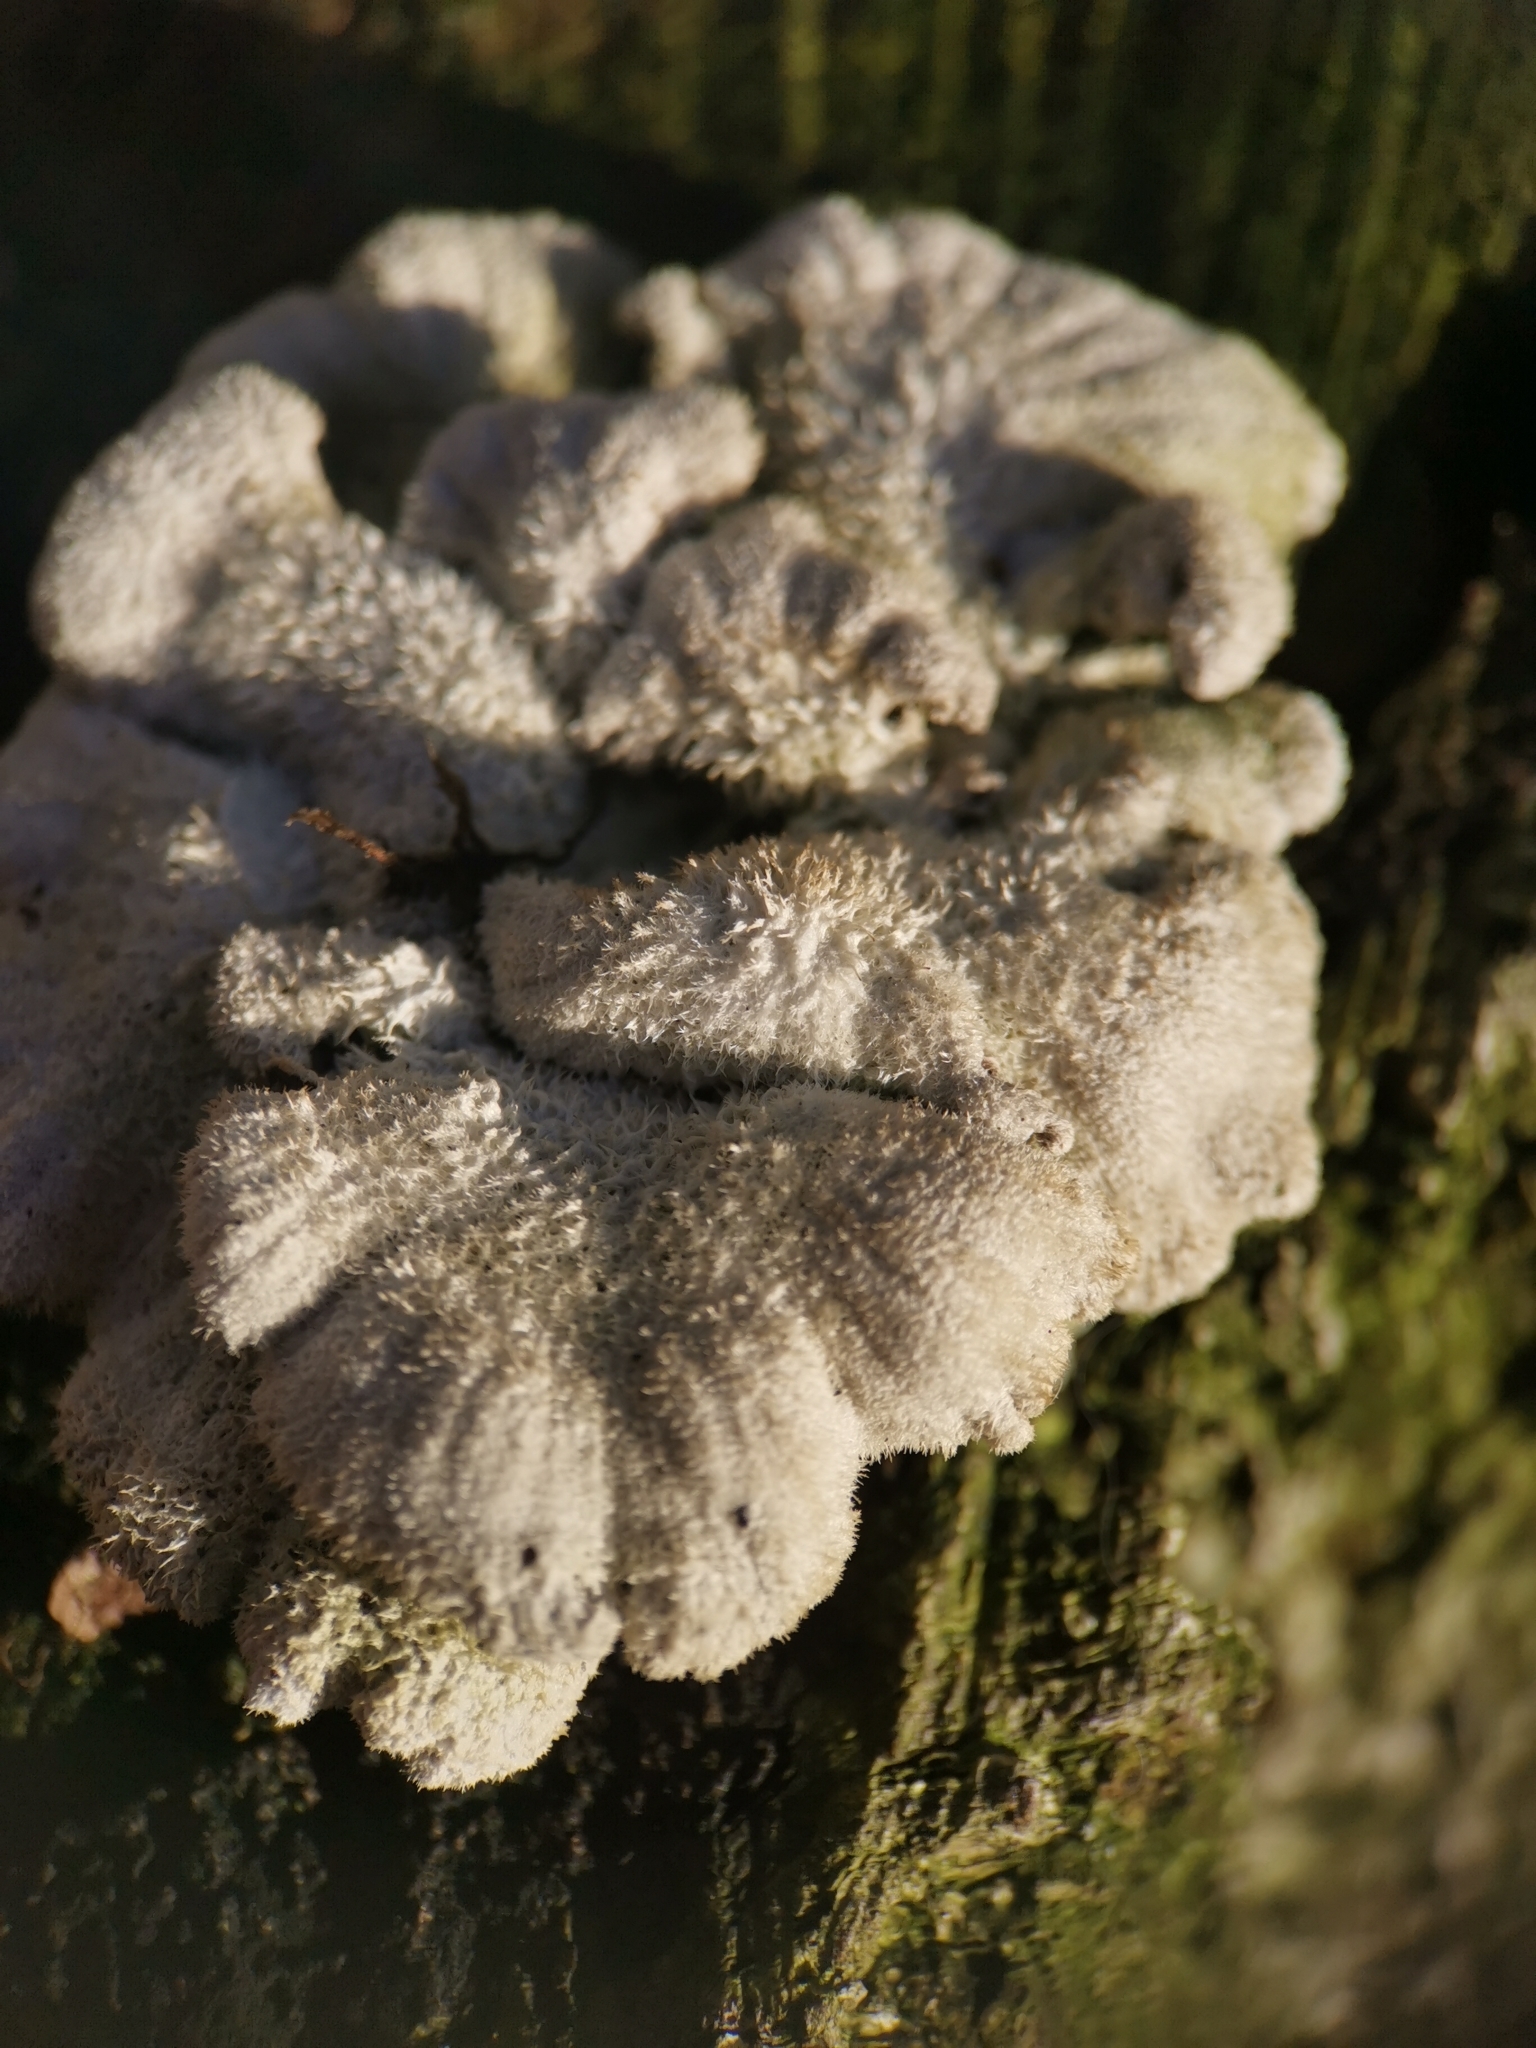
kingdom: Fungi
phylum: Basidiomycota
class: Agaricomycetes
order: Agaricales
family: Schizophyllaceae
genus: Schizophyllum
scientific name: Schizophyllum commune
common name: Common porecrust
